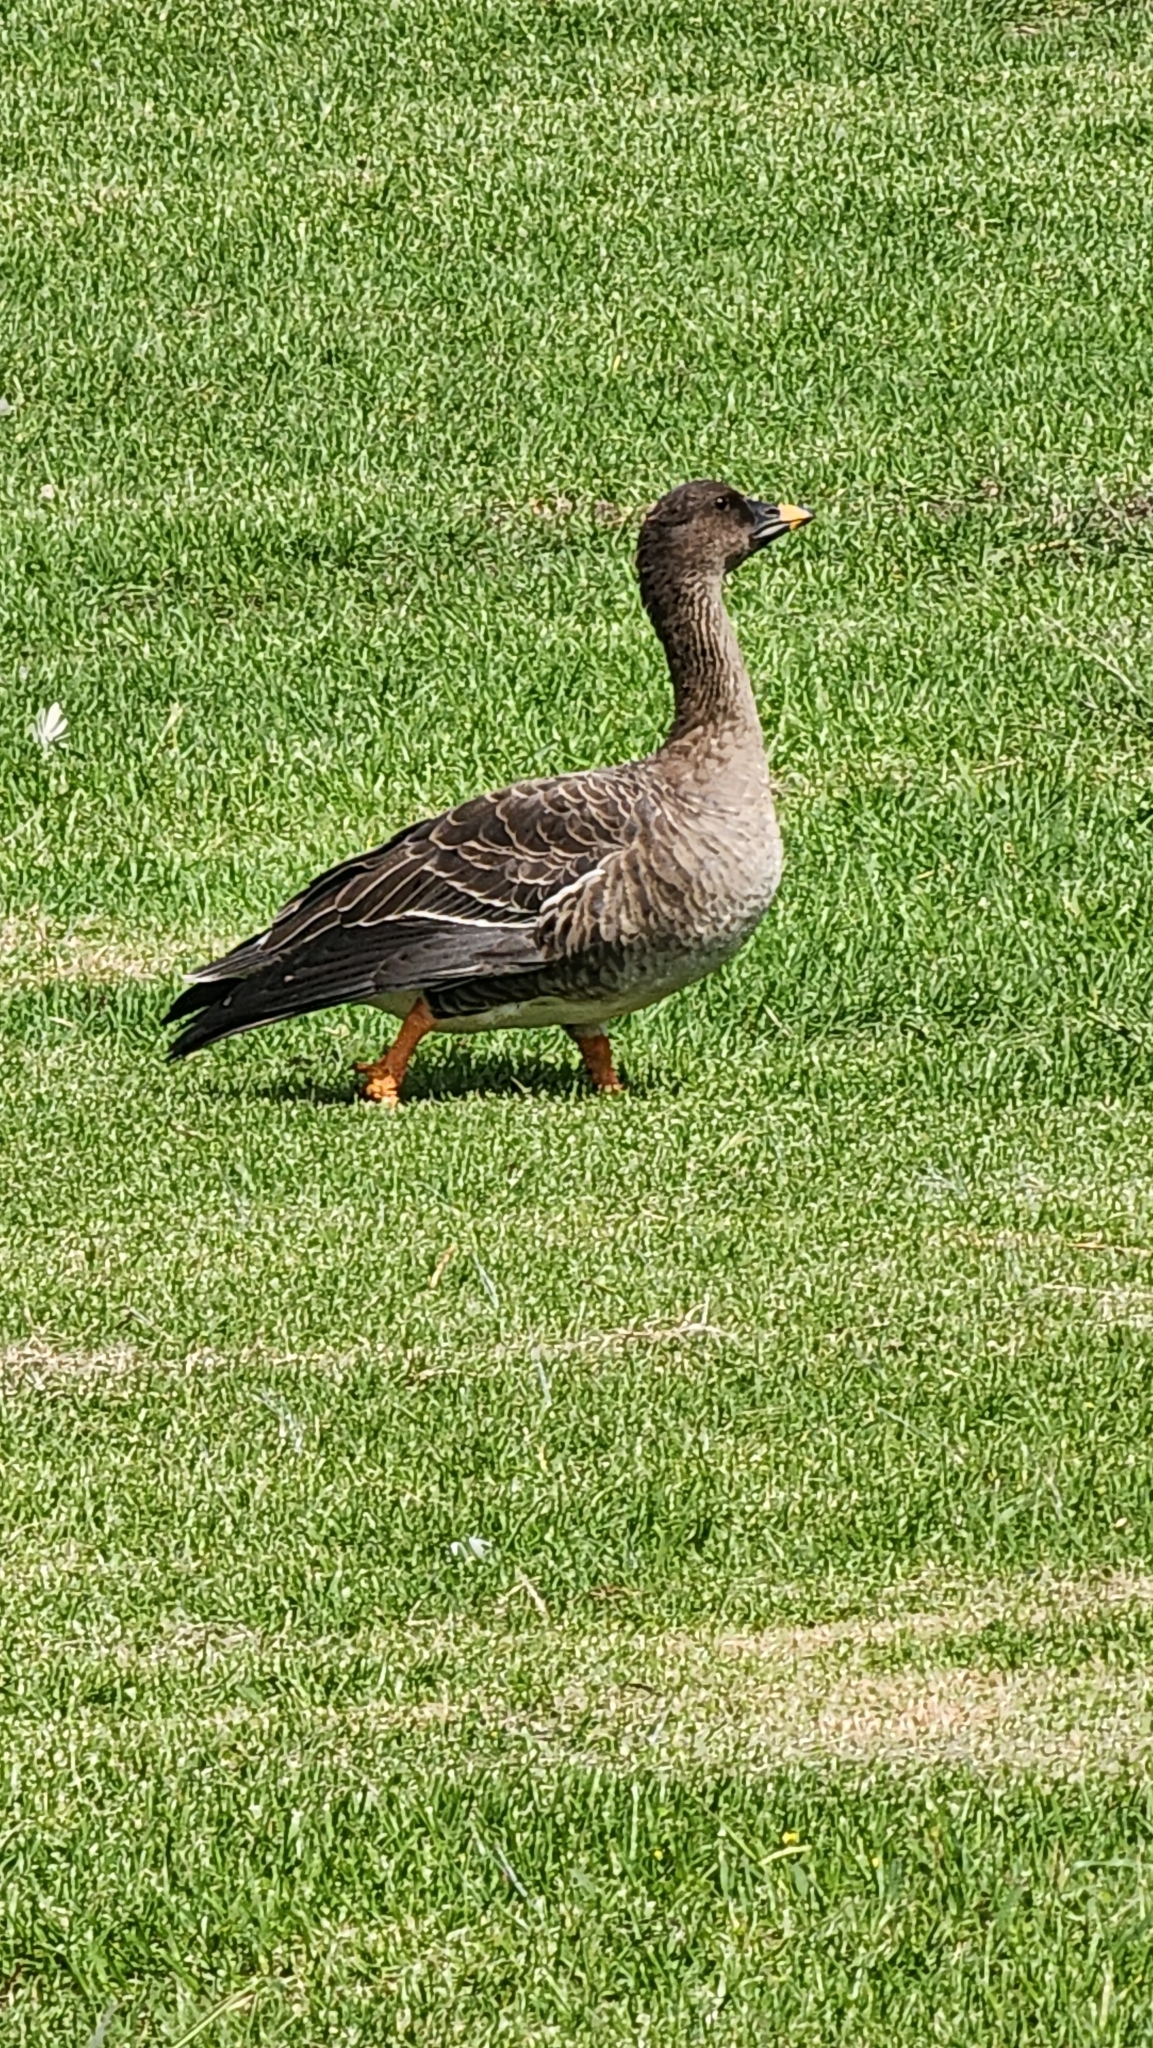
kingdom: Animalia
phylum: Chordata
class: Aves
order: Anseriformes
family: Anatidae
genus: Anser
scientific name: Anser serrirostris
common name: Tundra bean goose
